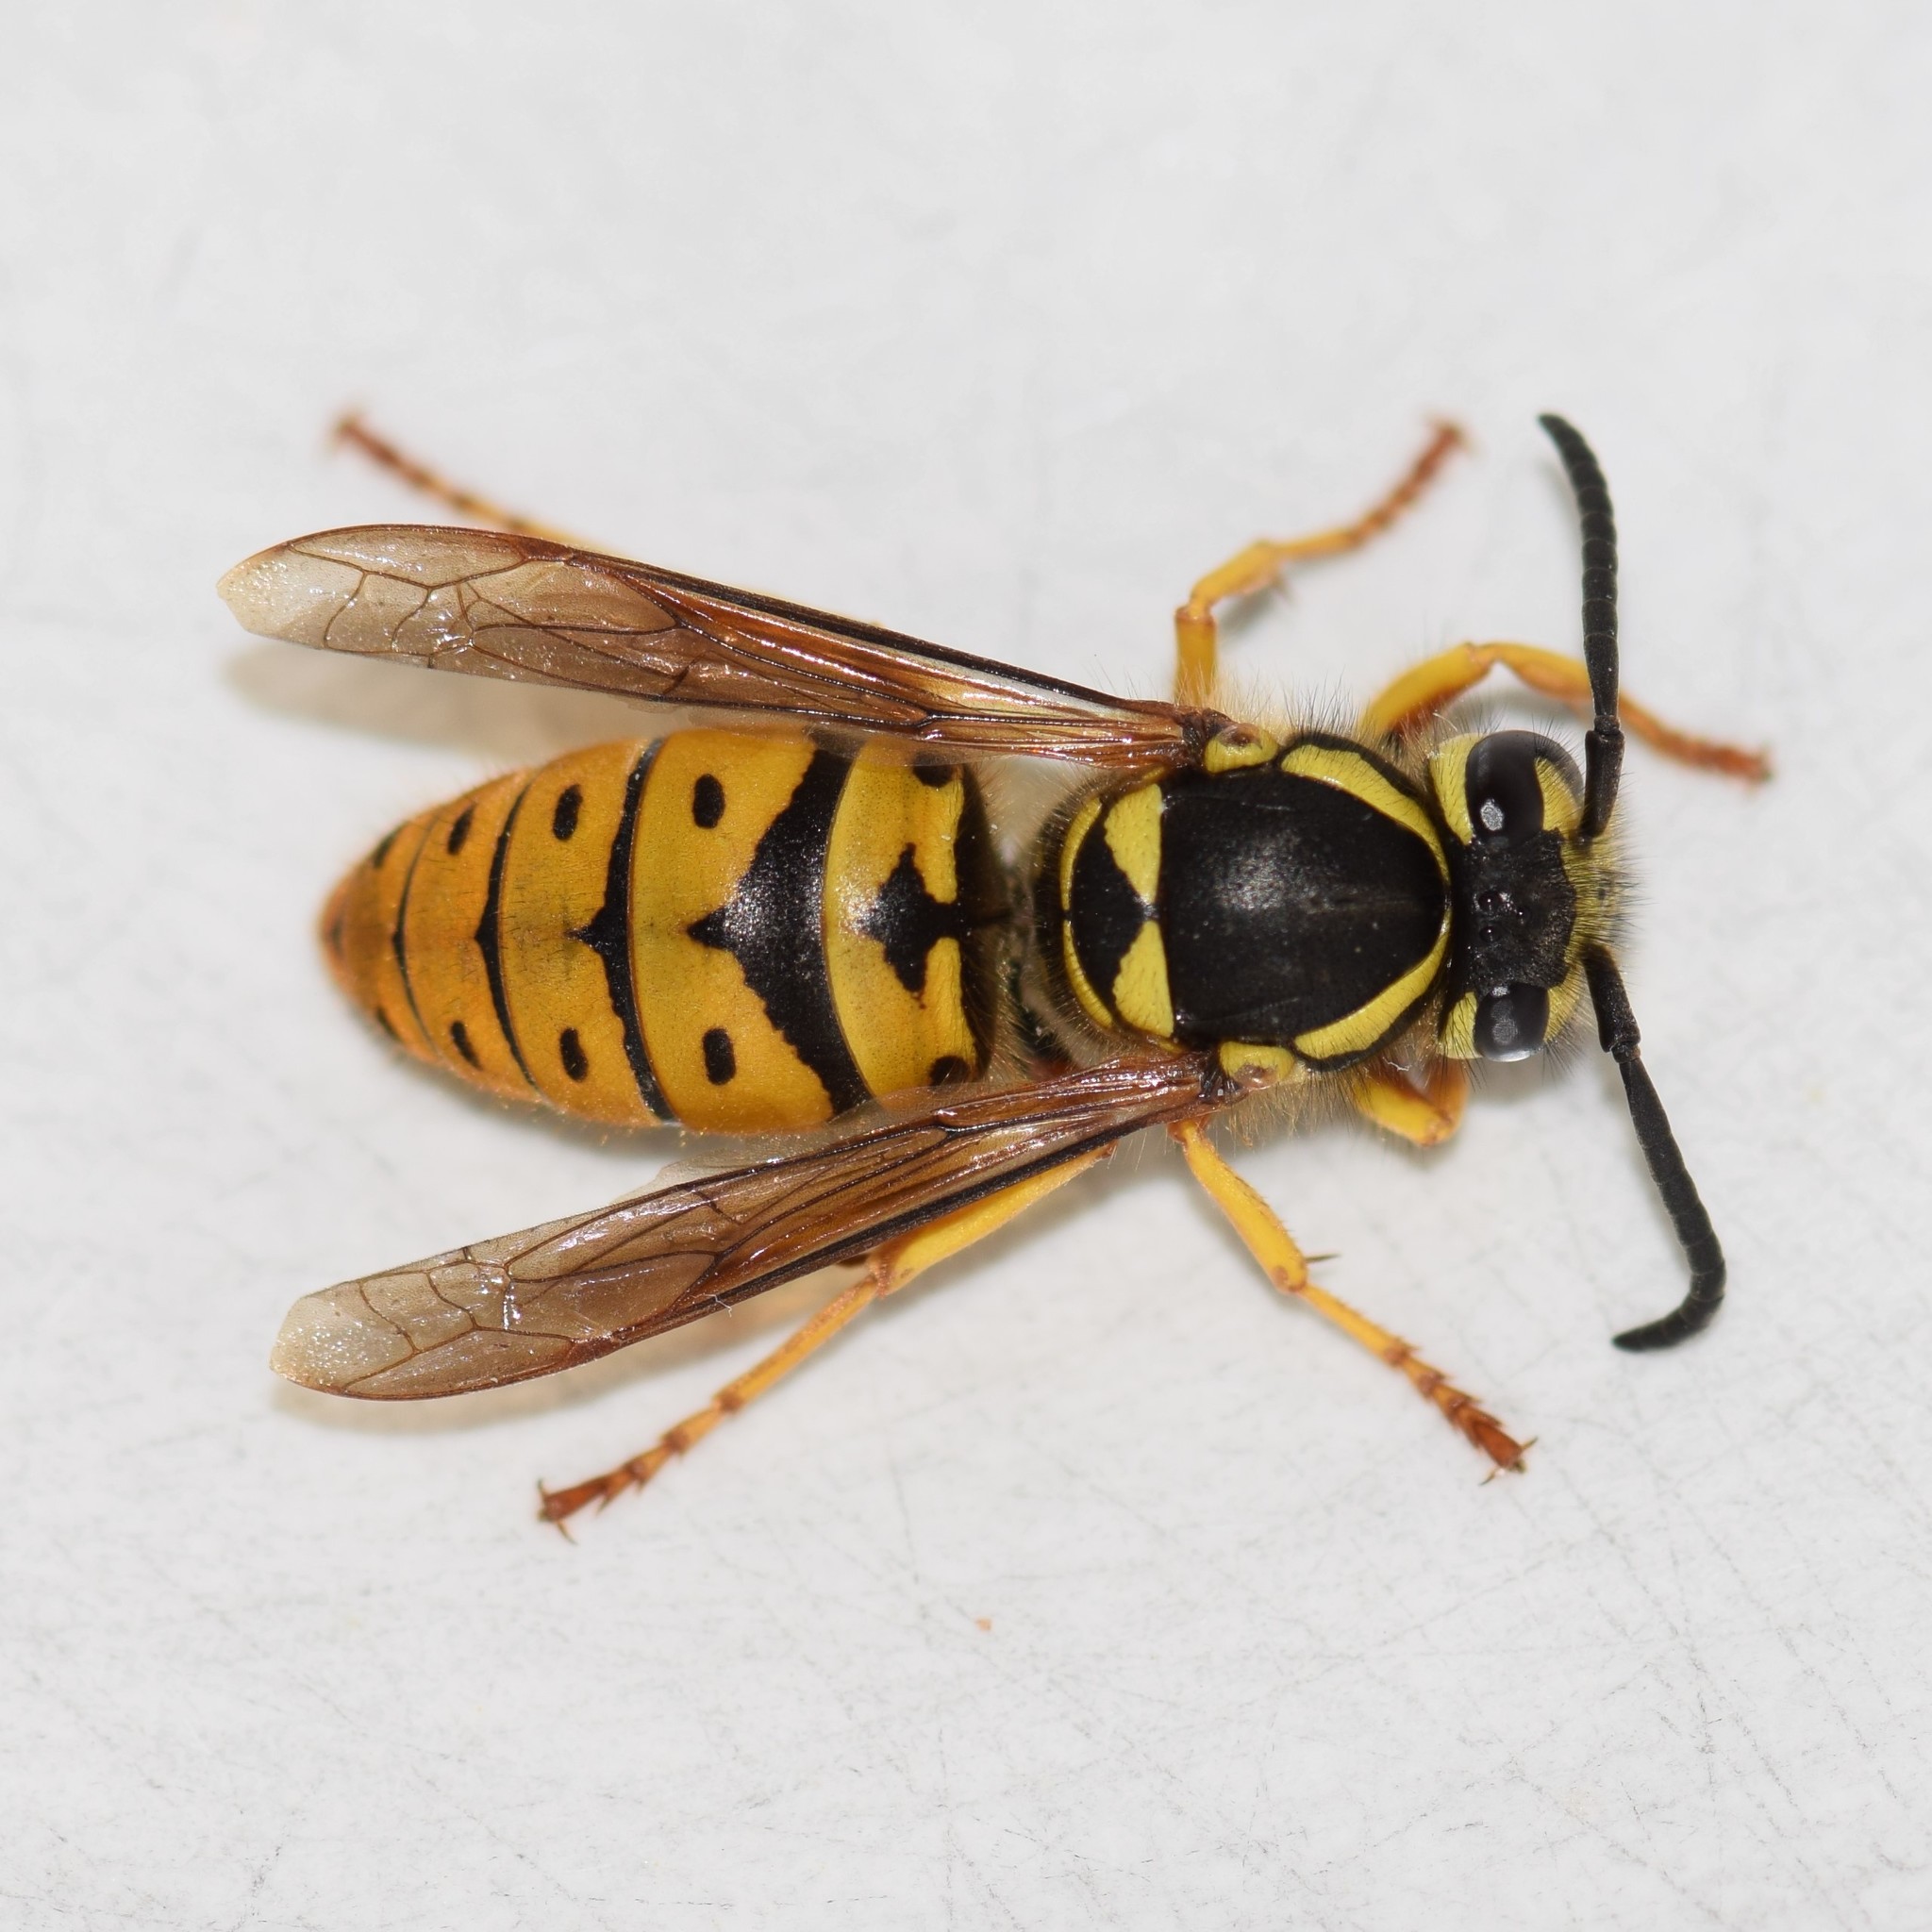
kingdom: Animalia
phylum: Arthropoda
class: Insecta
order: Hymenoptera
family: Vespidae
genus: Vespula
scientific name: Vespula maculifrons
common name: Eastern yellowjacket
